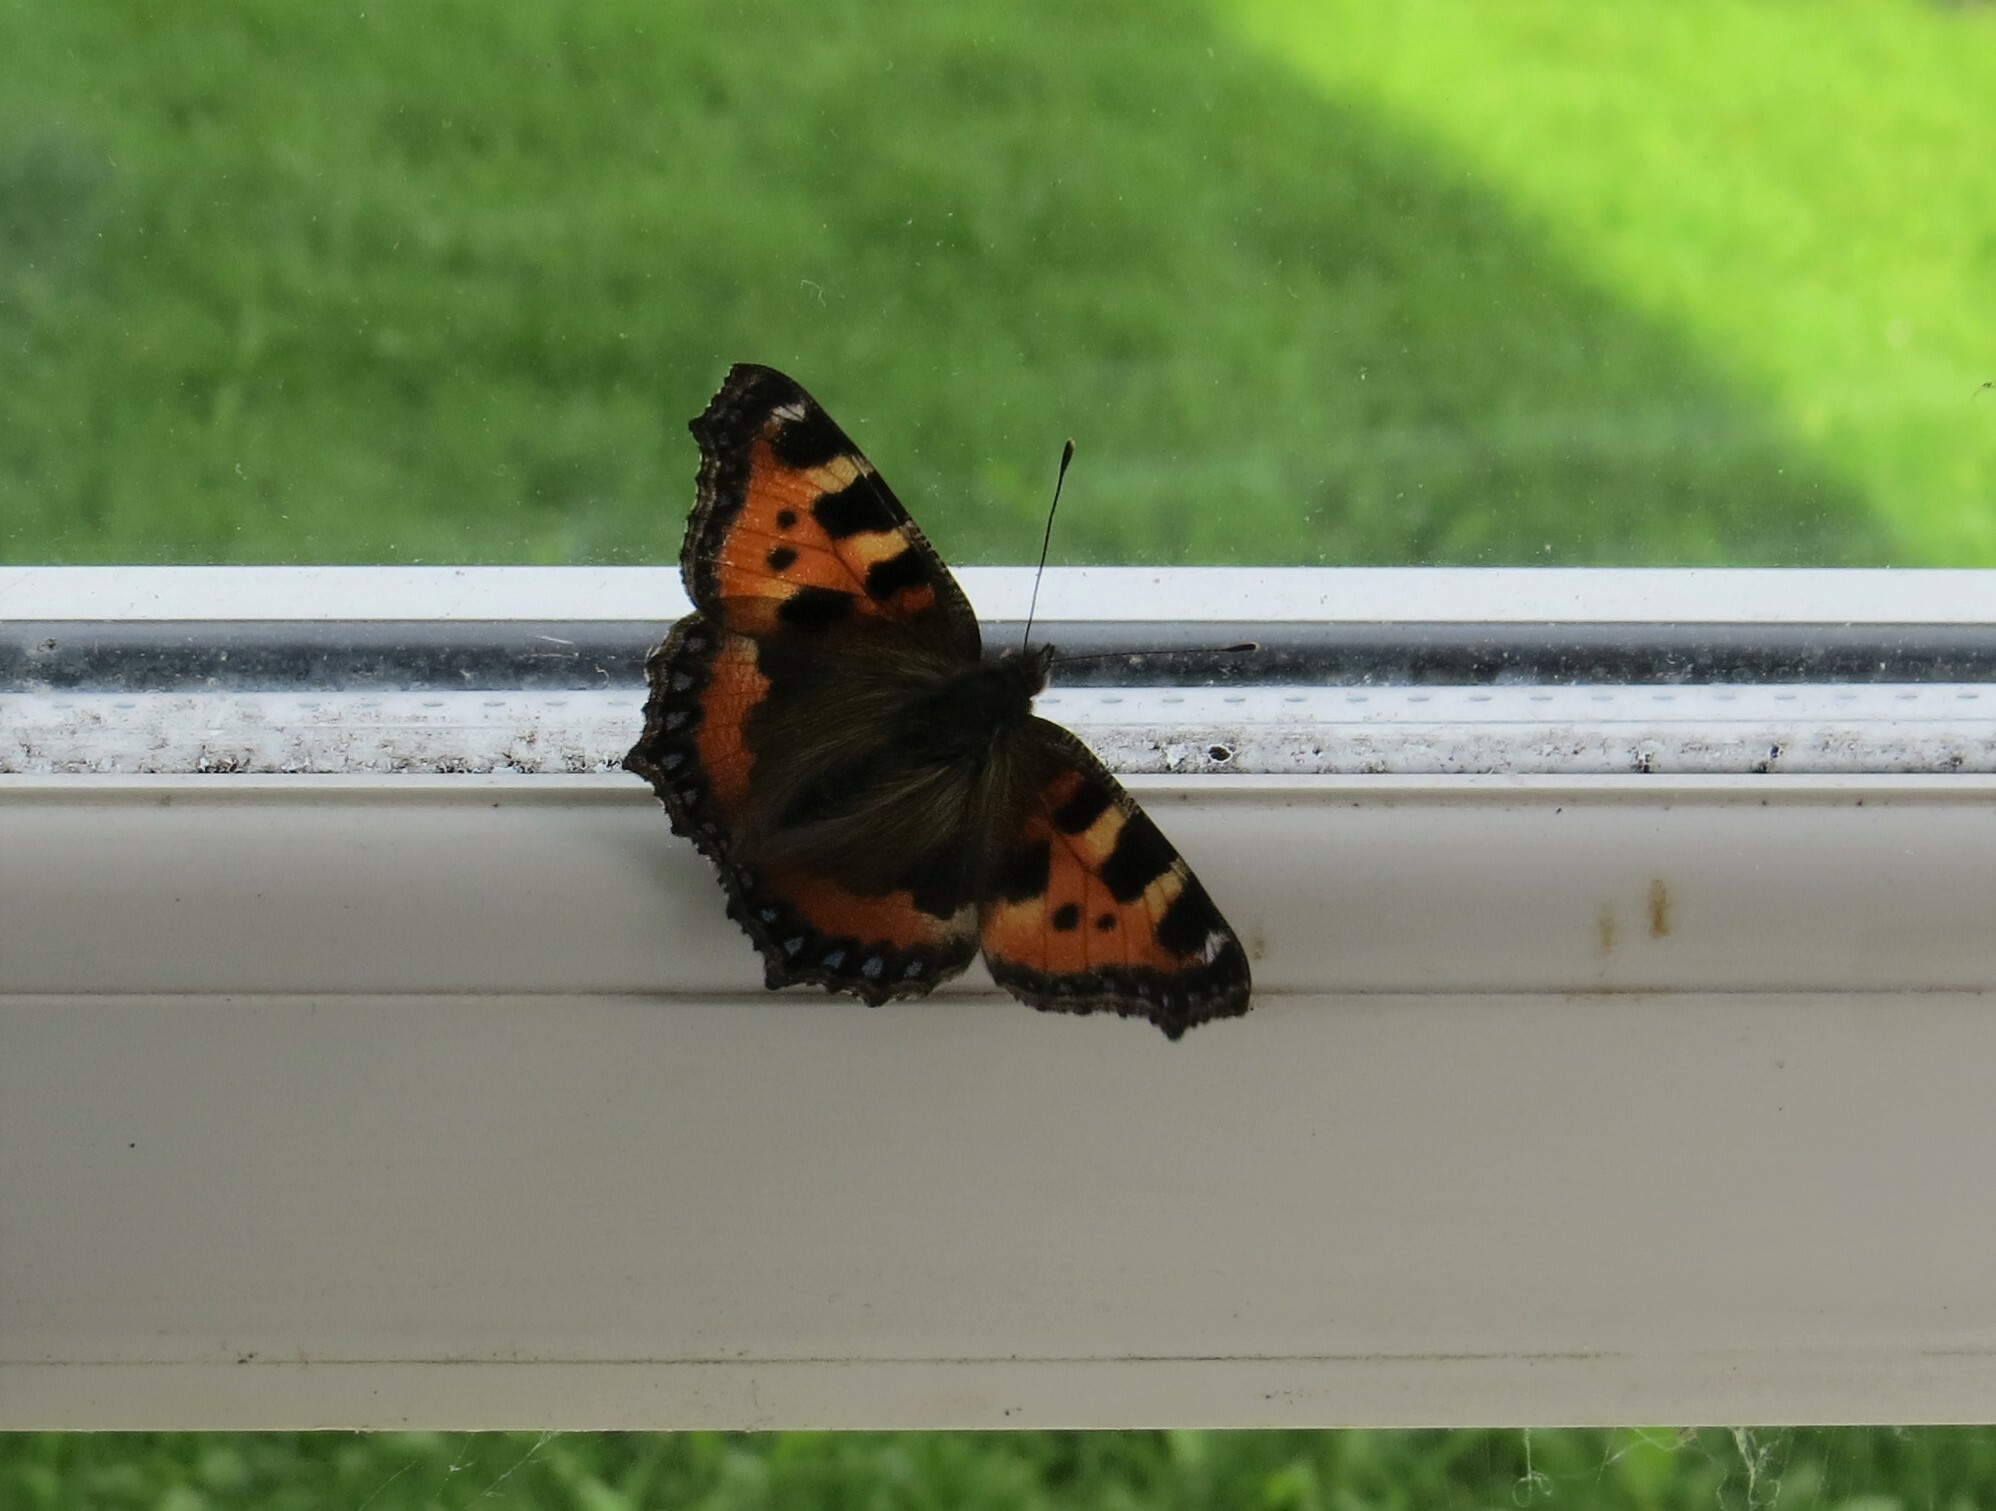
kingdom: Animalia
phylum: Arthropoda
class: Insecta
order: Lepidoptera
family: Nymphalidae
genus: Aglais
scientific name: Aglais urticae
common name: Small tortoiseshell
